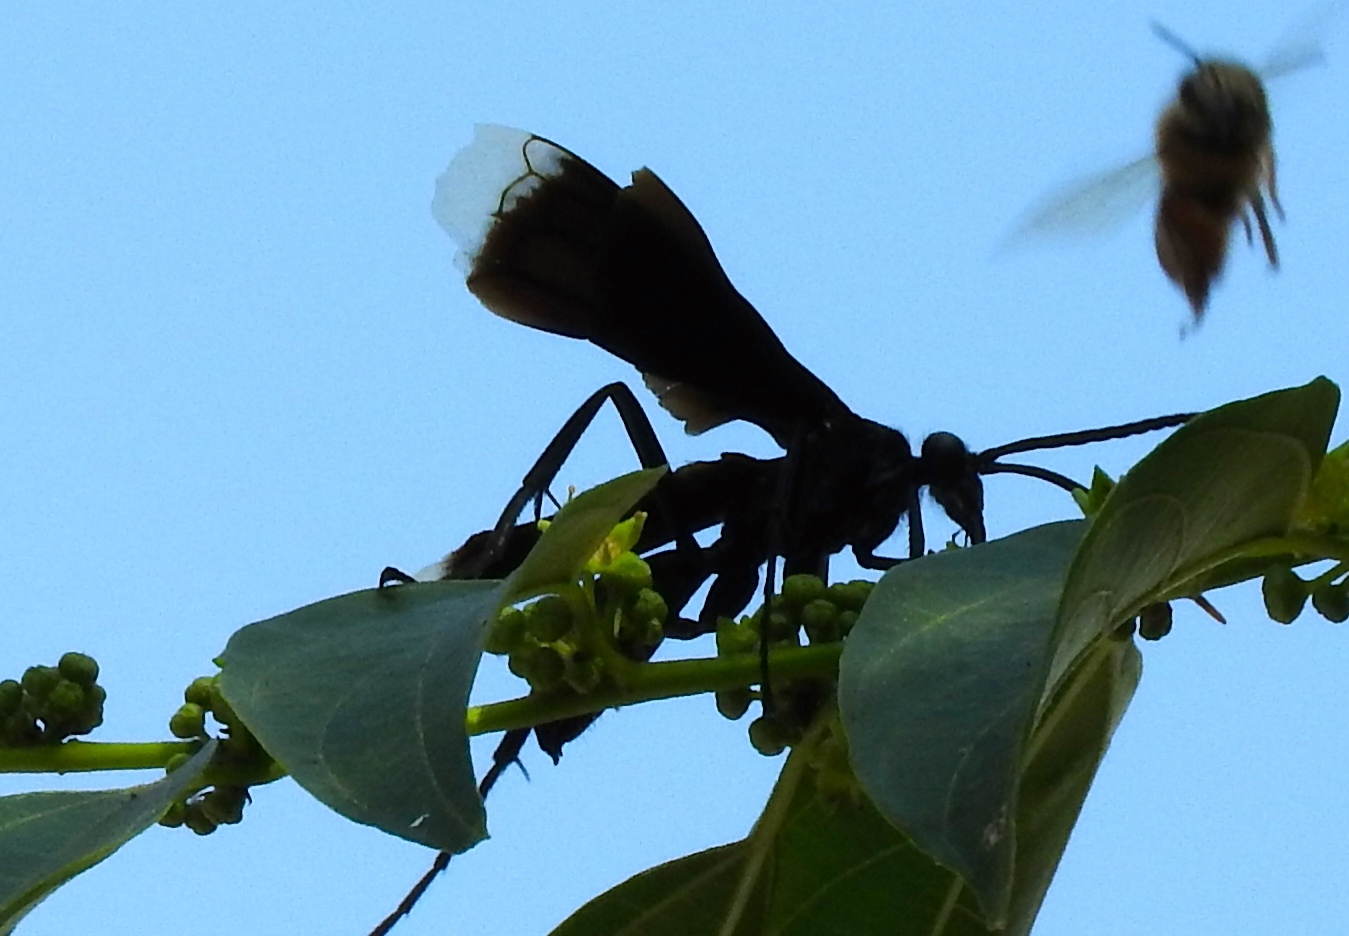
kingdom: Animalia
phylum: Arthropoda
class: Insecta
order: Hymenoptera
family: Pompilidae
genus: Pepsis
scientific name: Pepsis
